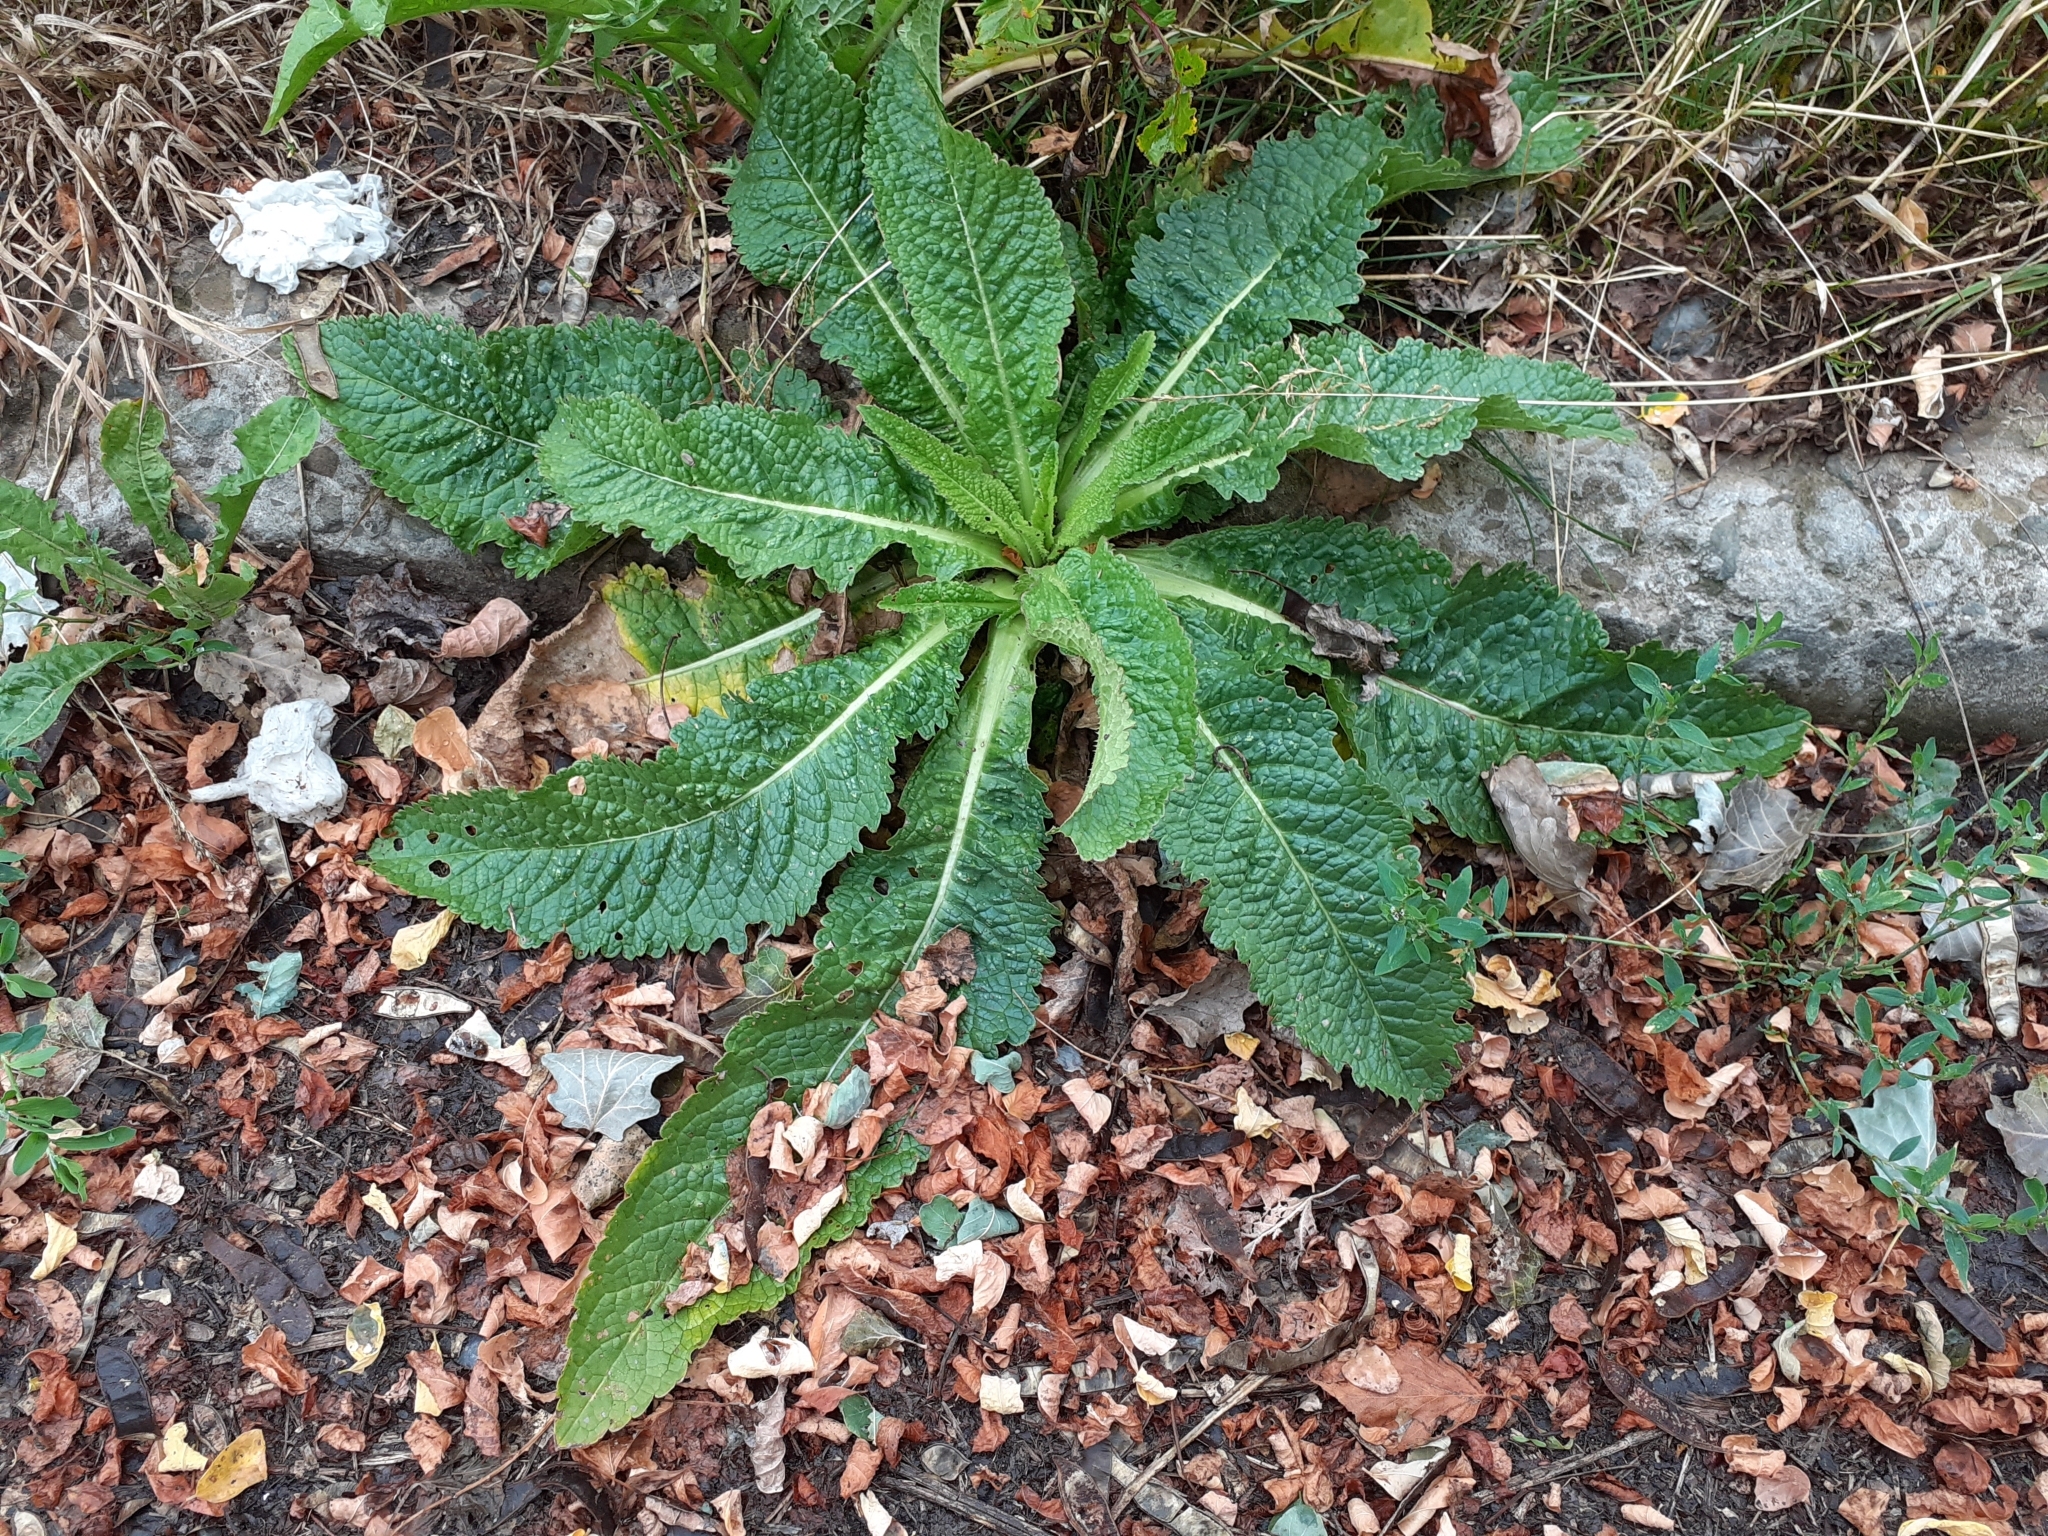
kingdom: Plantae
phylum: Tracheophyta
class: Magnoliopsida
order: Dipsacales
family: Caprifoliaceae
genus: Dipsacus
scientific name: Dipsacus fullonum
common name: Teasel
